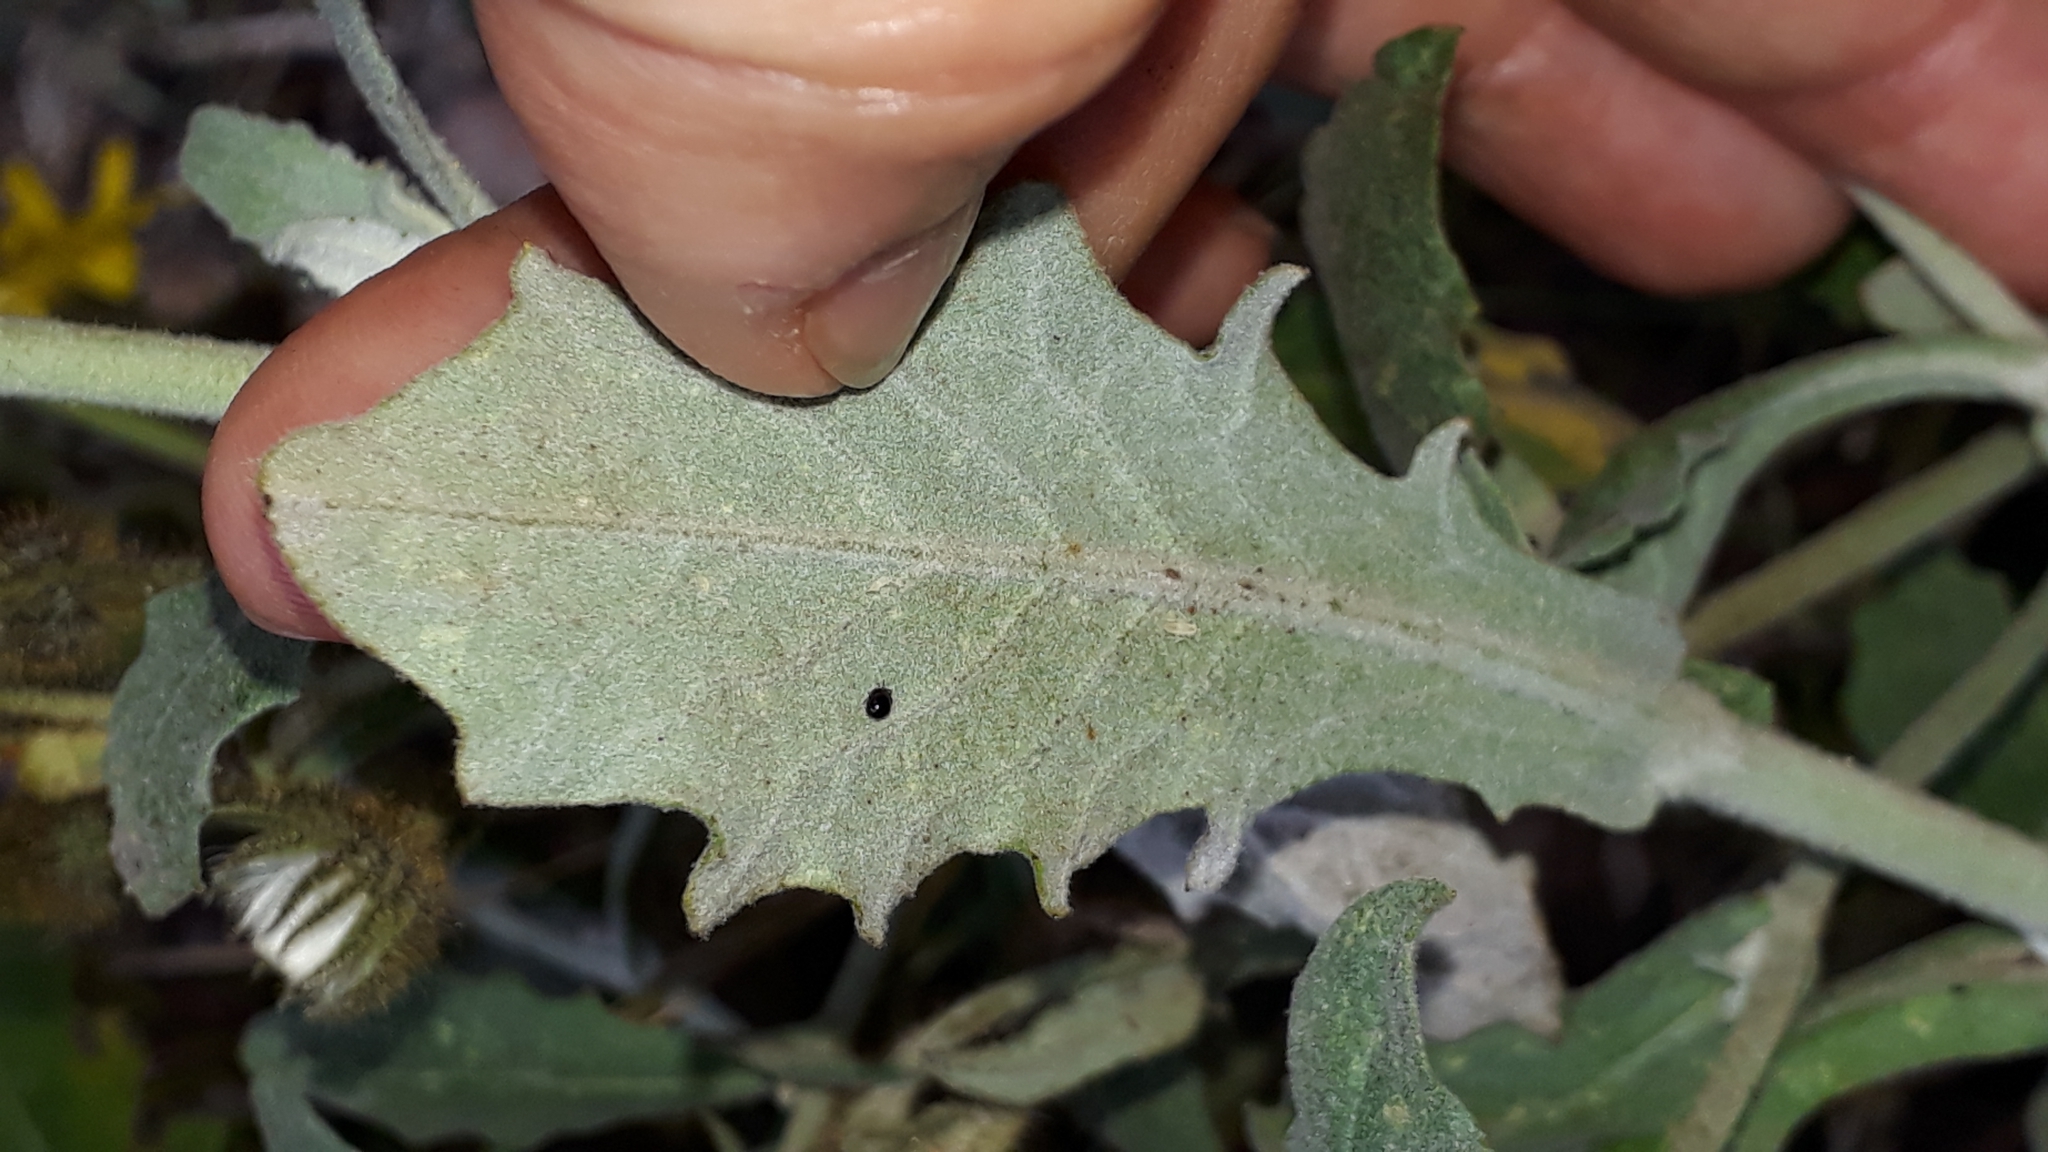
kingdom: Plantae
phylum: Tracheophyta
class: Magnoliopsida
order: Asterales
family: Asteraceae
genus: Andryala
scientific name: Andryala pinnatifida
